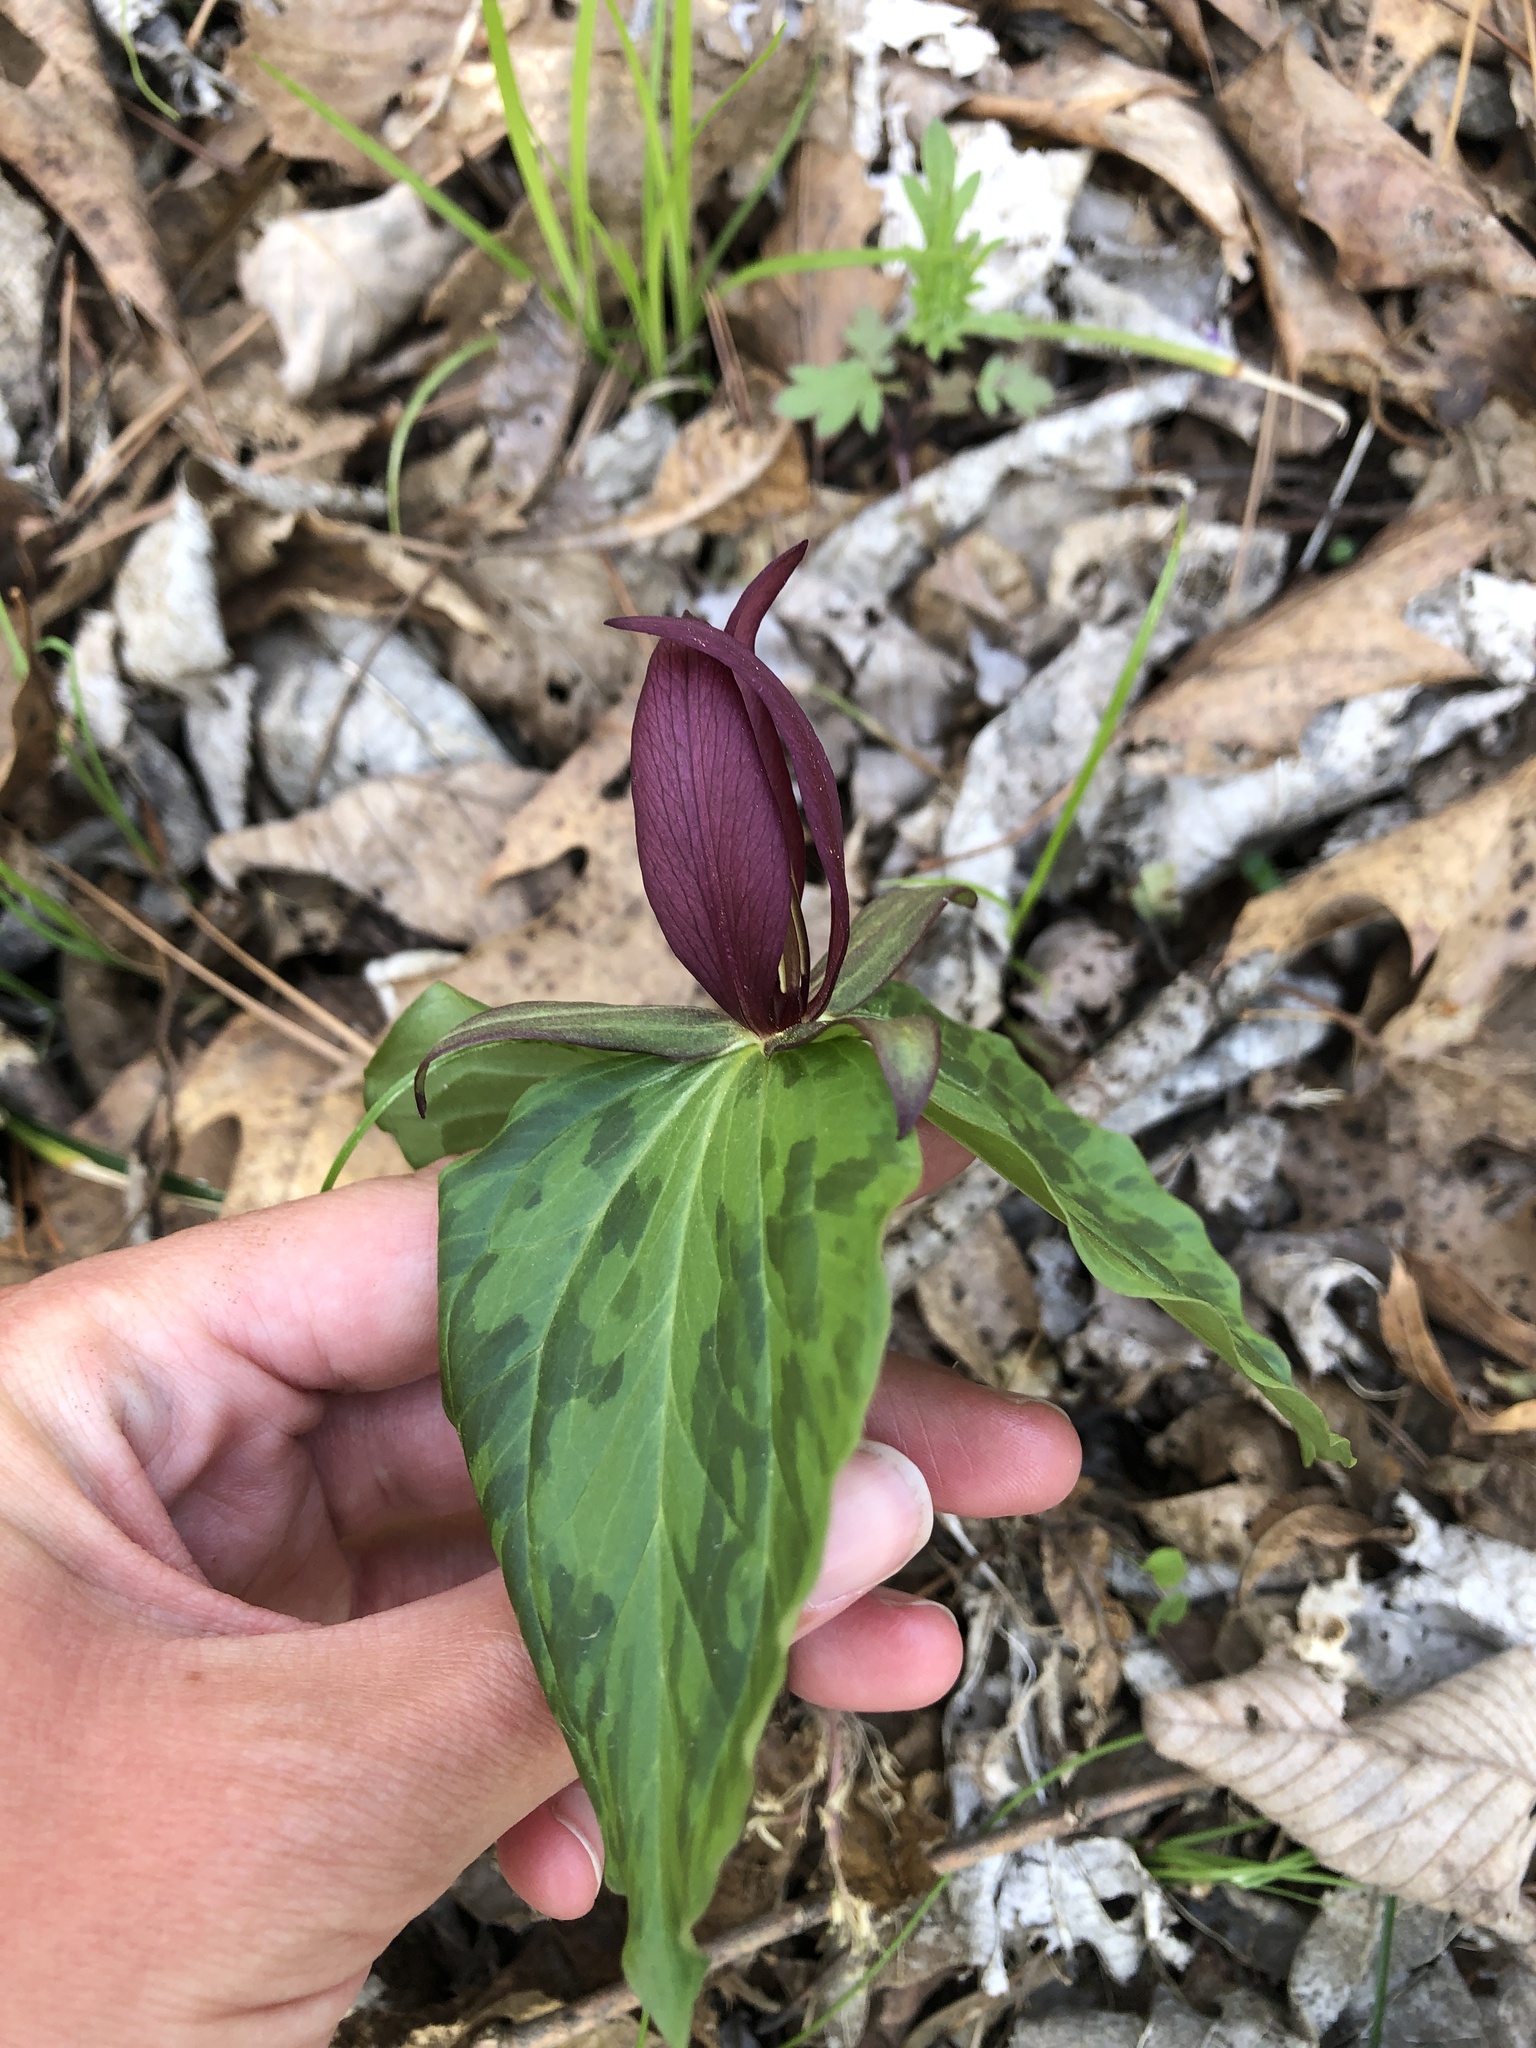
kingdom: Plantae
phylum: Tracheophyta
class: Liliopsida
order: Liliales
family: Melanthiaceae
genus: Trillium
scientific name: Trillium sessile
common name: Sessile trillium
